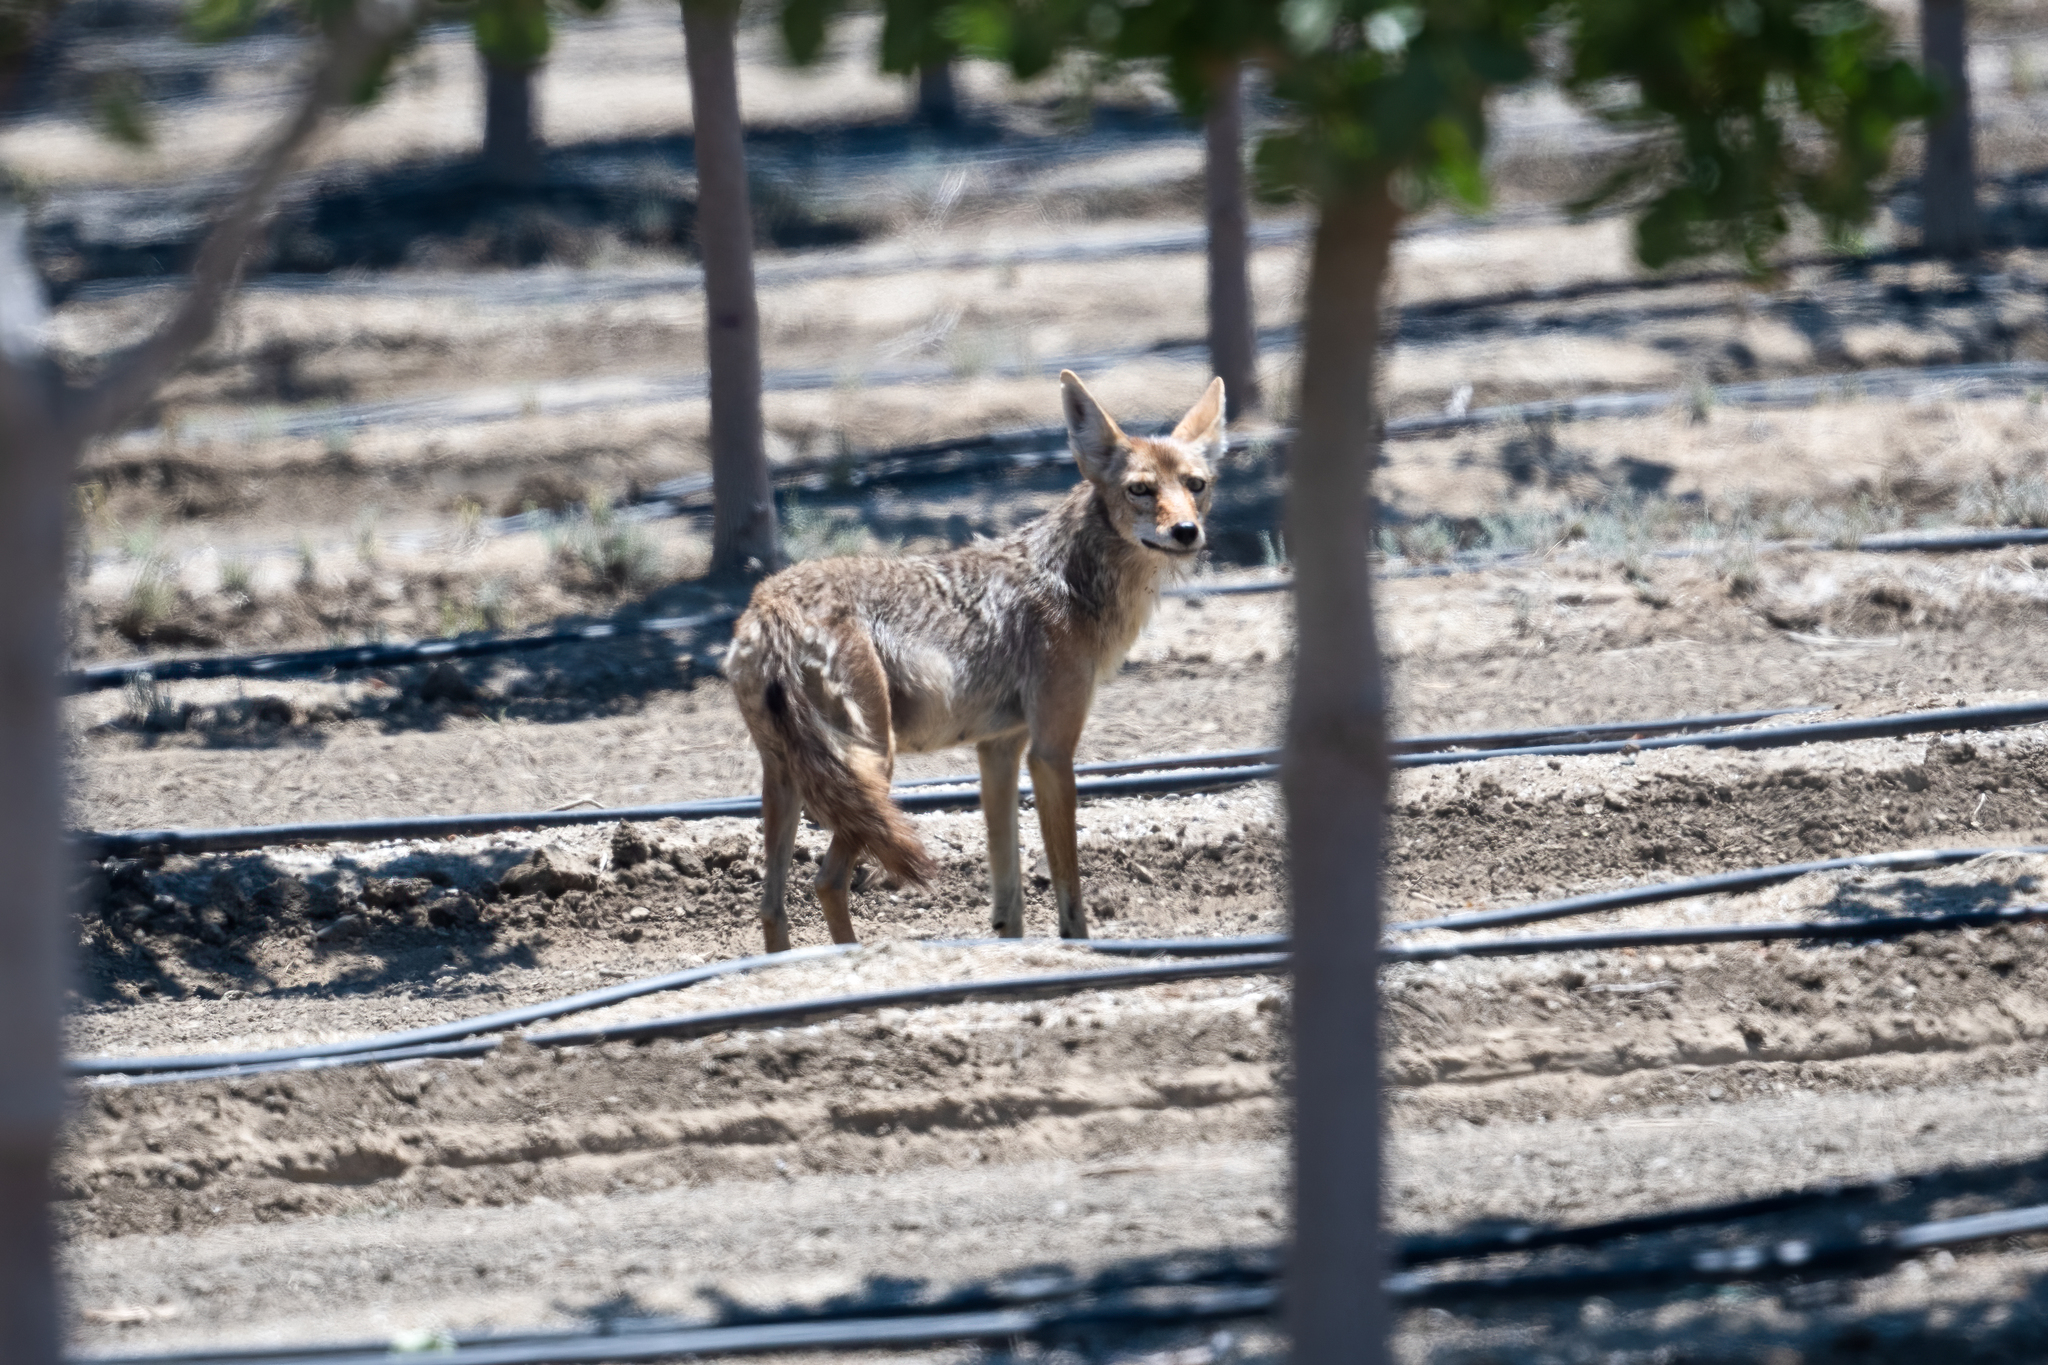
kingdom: Animalia
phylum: Chordata
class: Mammalia
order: Carnivora
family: Canidae
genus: Canis
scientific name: Canis latrans
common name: Coyote
